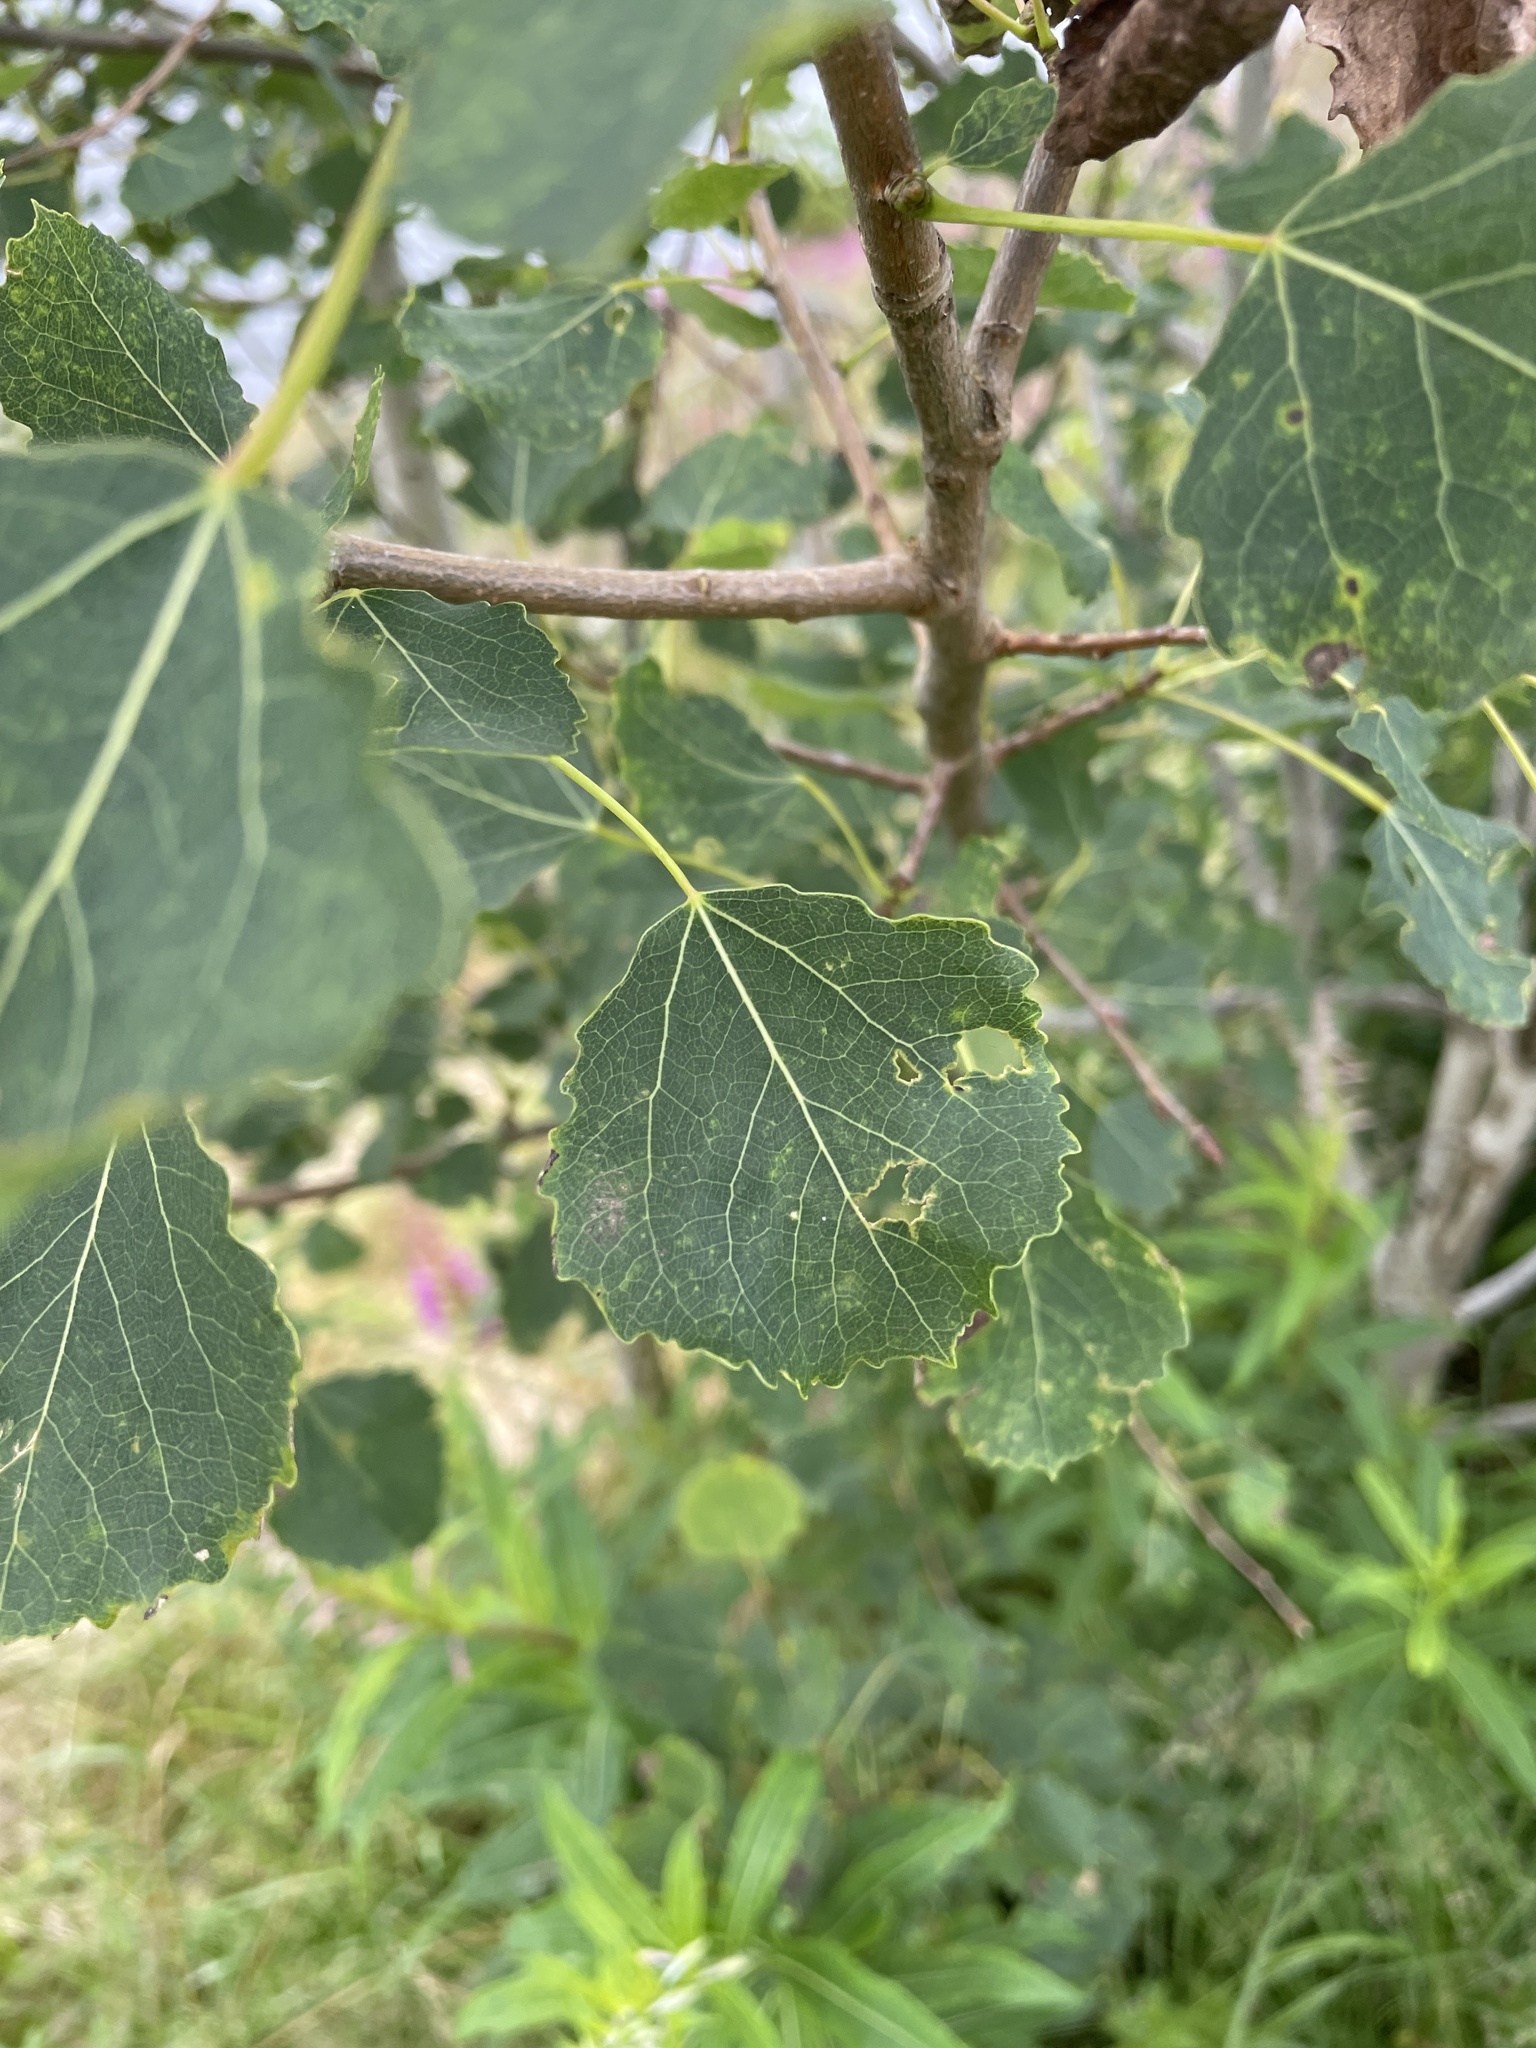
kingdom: Plantae
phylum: Tracheophyta
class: Magnoliopsida
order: Malpighiales
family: Salicaceae
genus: Populus
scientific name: Populus tremula
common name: European aspen
